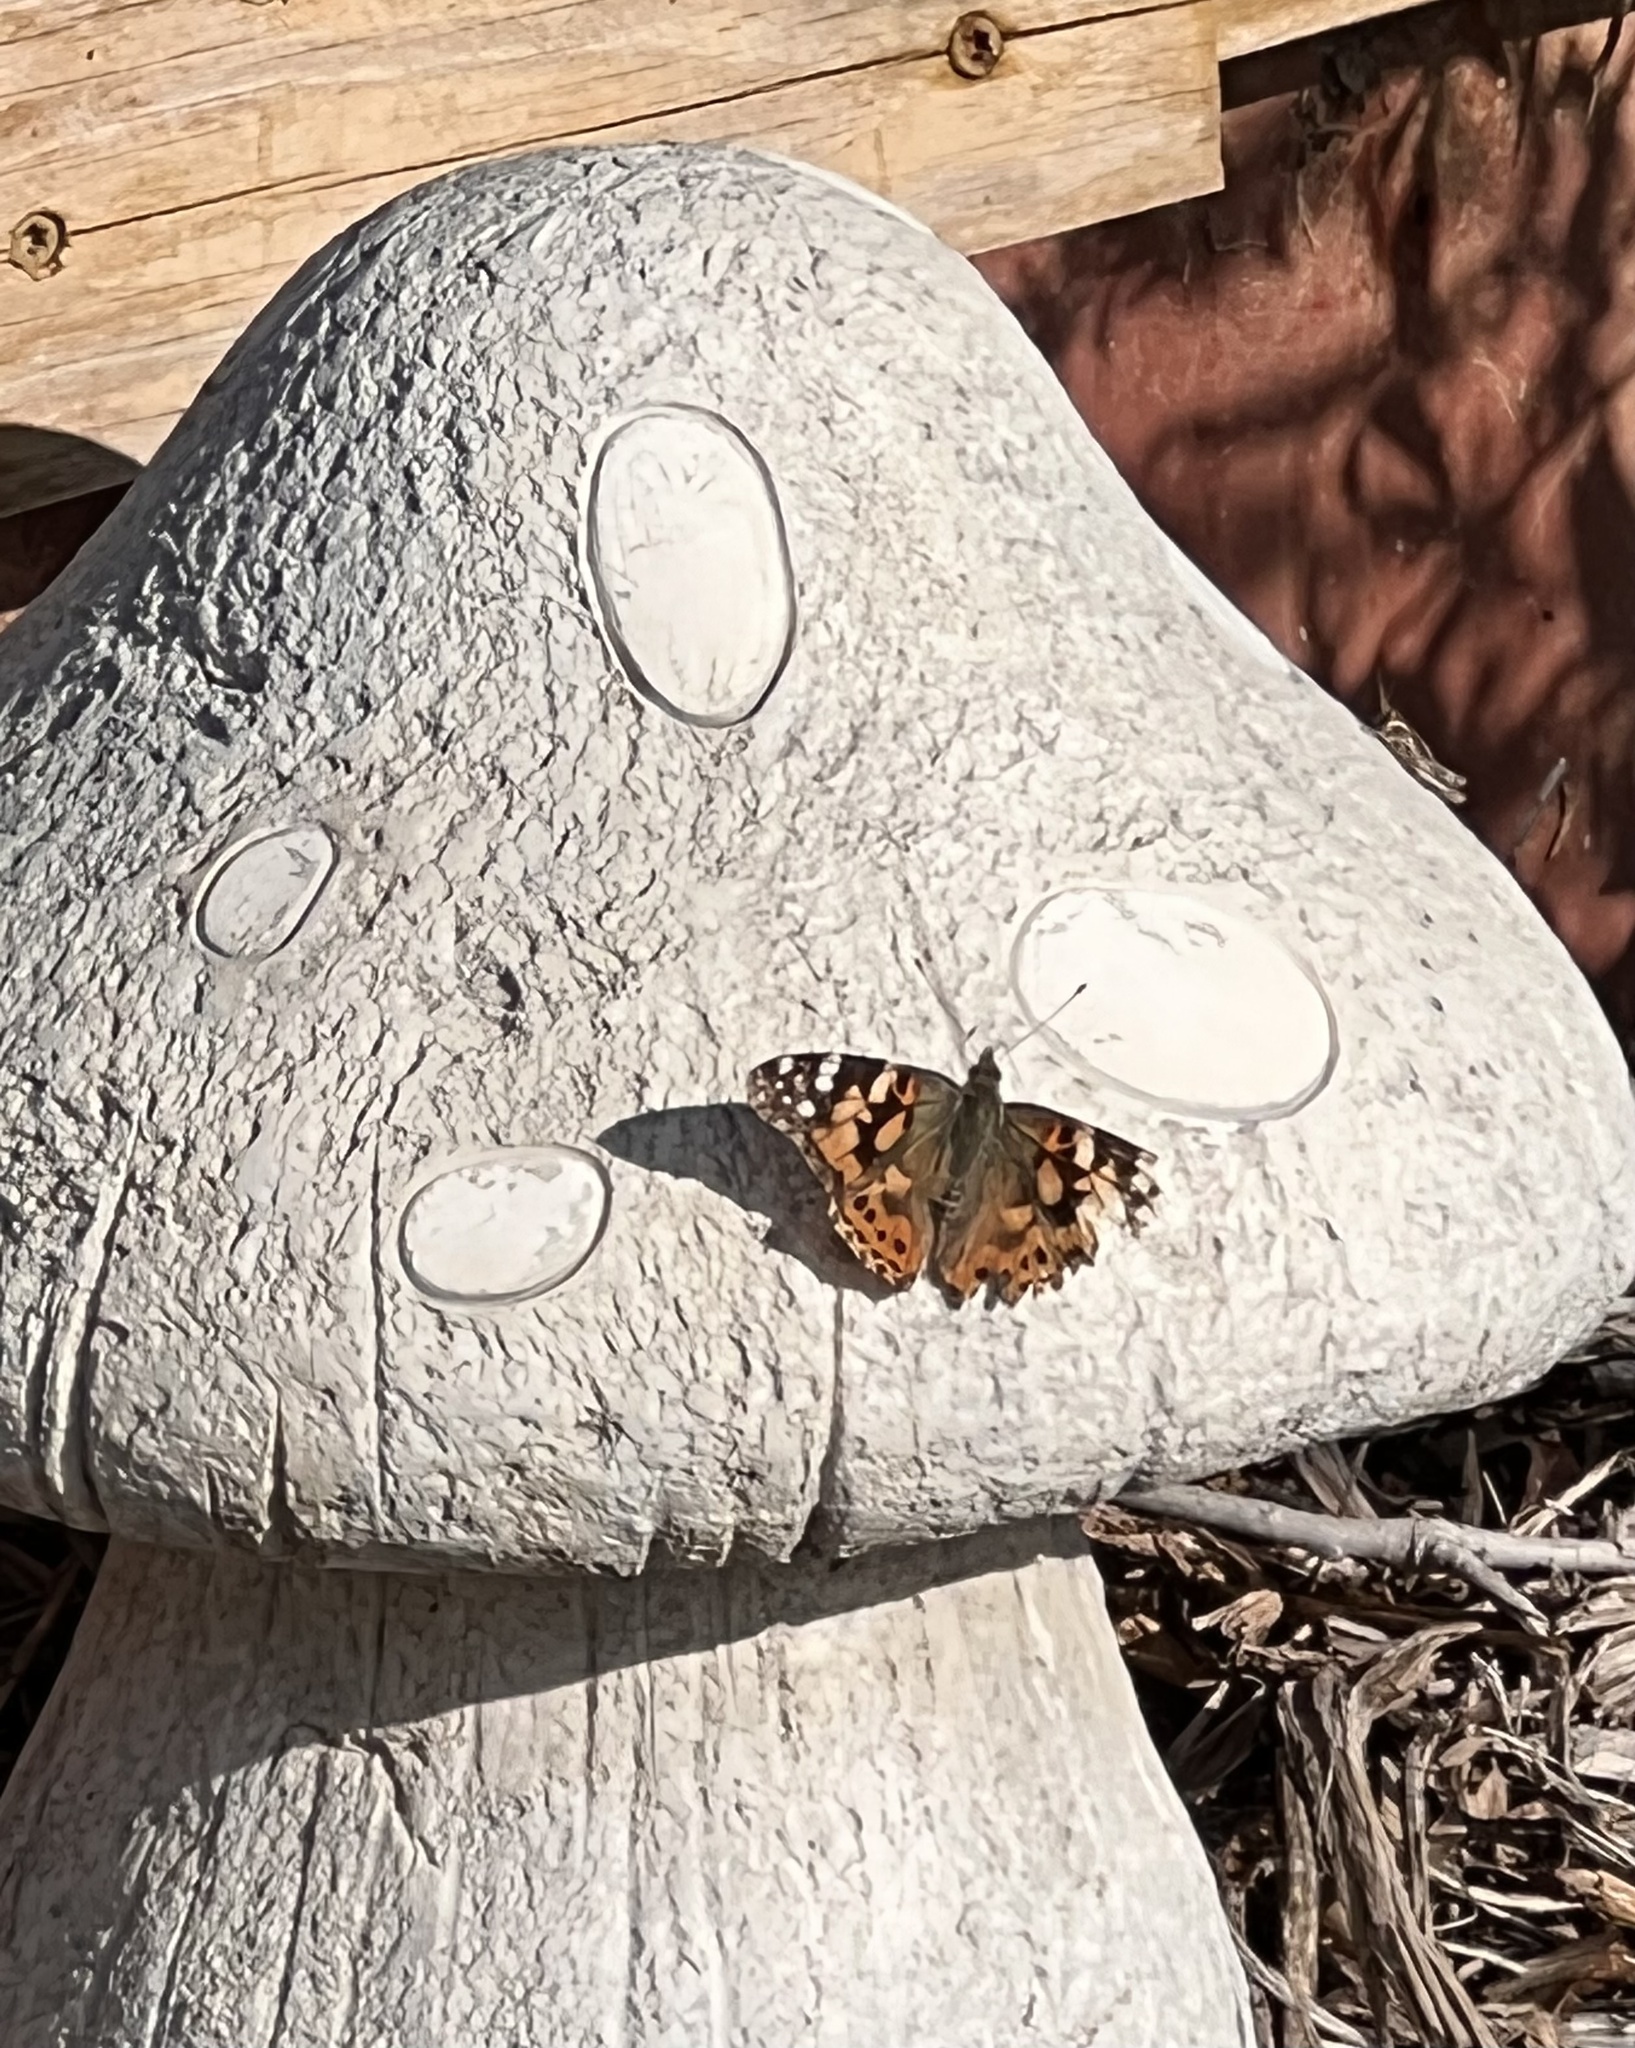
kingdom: Animalia
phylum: Arthropoda
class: Insecta
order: Lepidoptera
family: Nymphalidae
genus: Vanessa
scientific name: Vanessa cardui
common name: Painted lady
